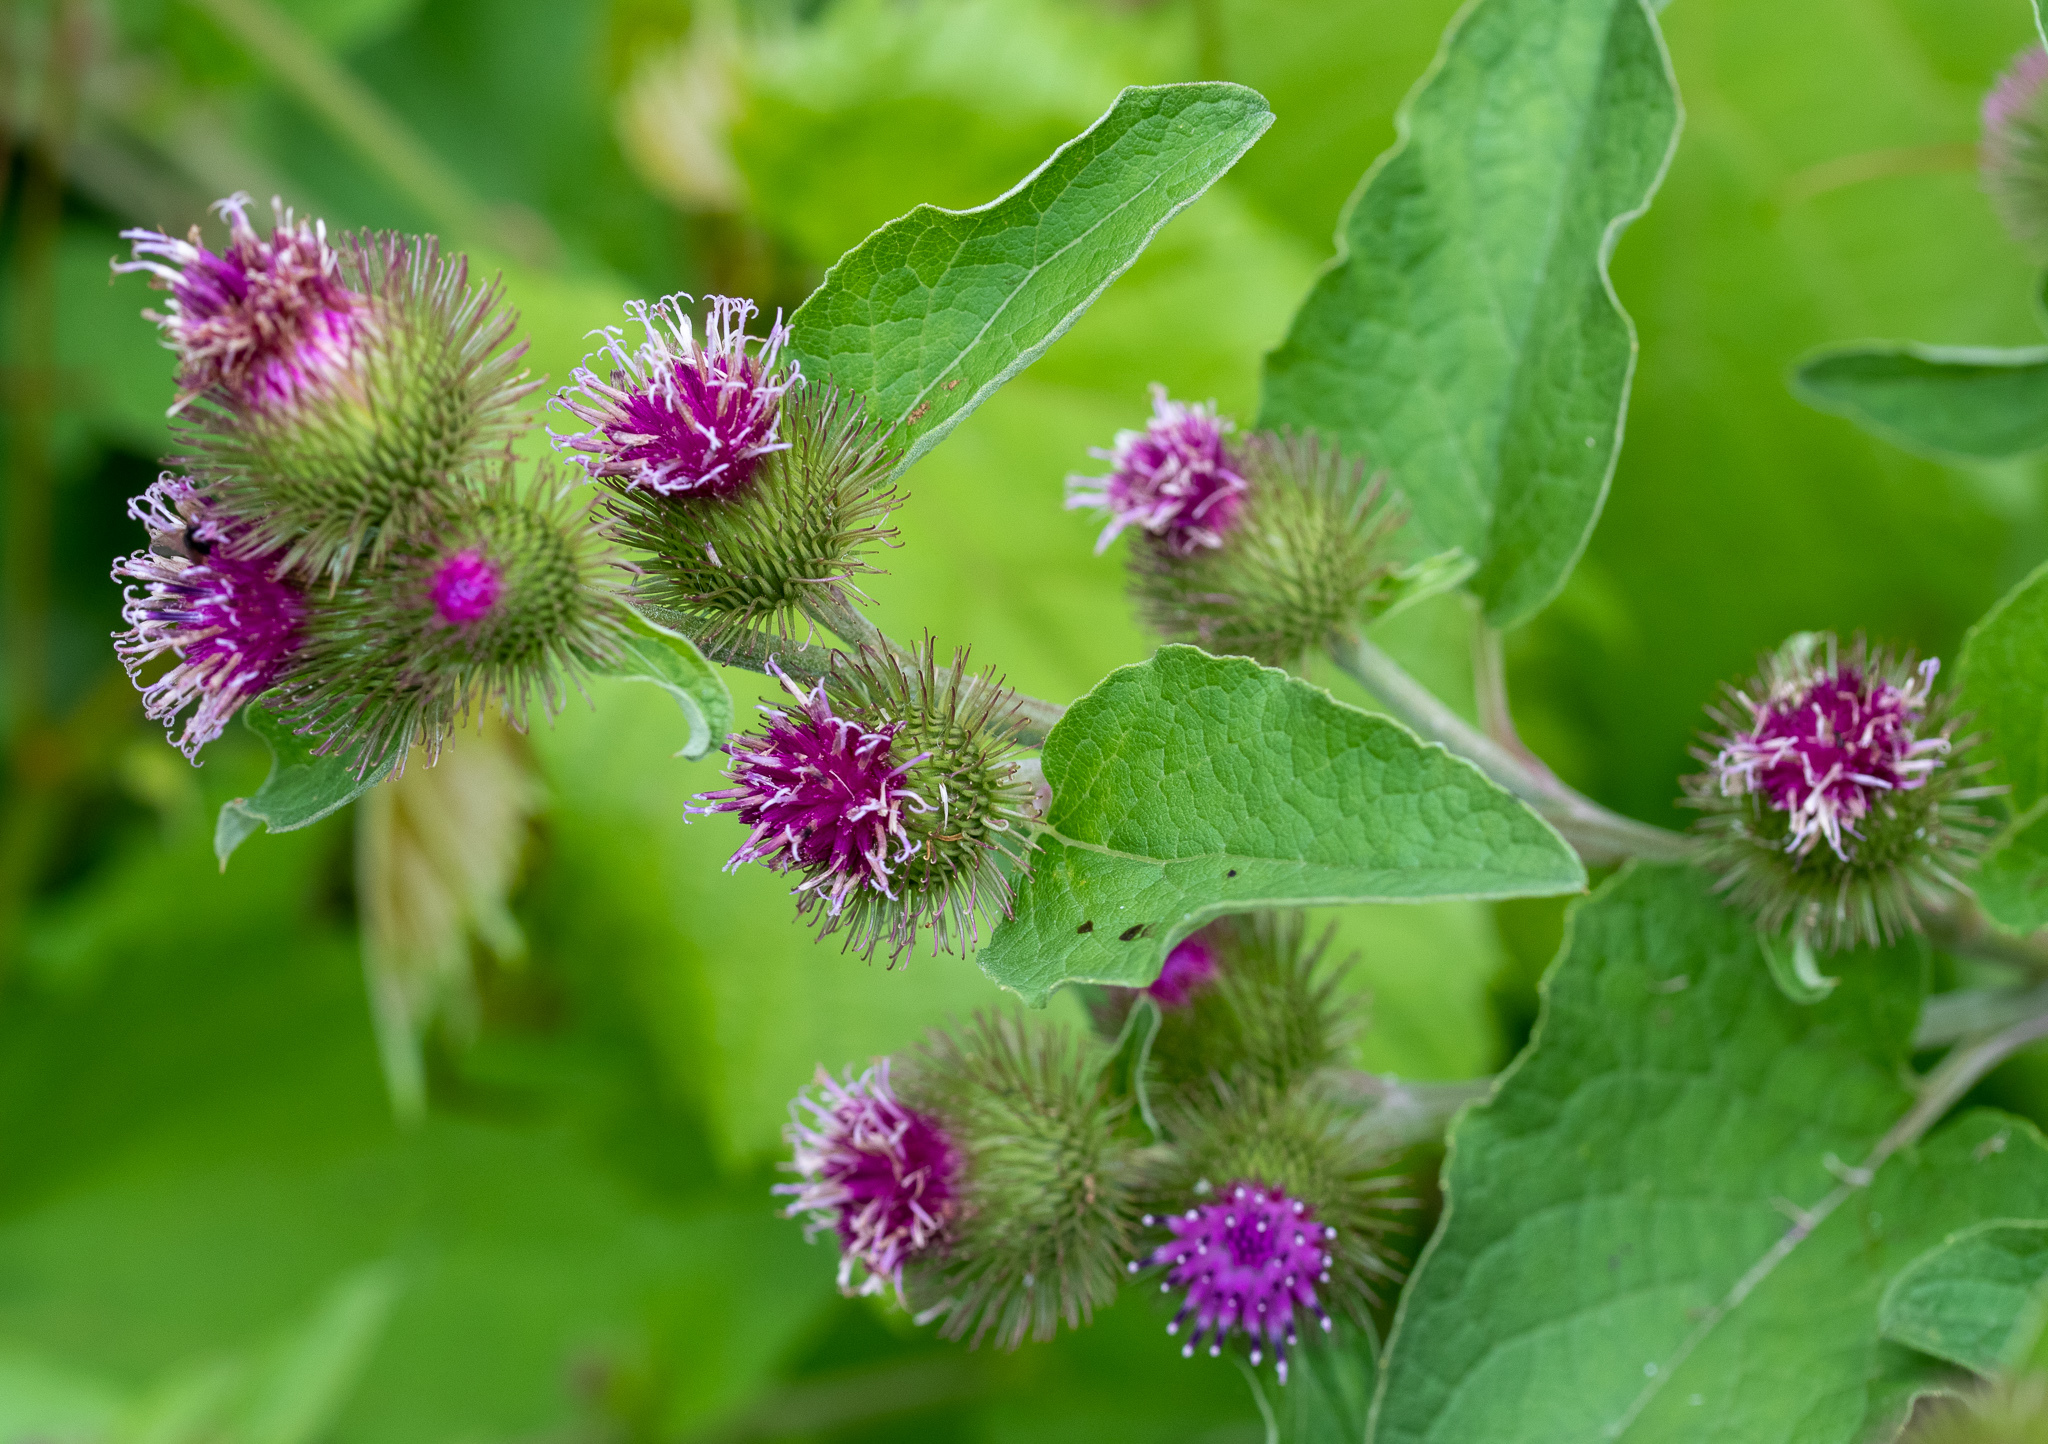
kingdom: Plantae
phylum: Tracheophyta
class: Magnoliopsida
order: Asterales
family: Asteraceae
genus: Arctium
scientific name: Arctium minus
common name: Lesser burdock
